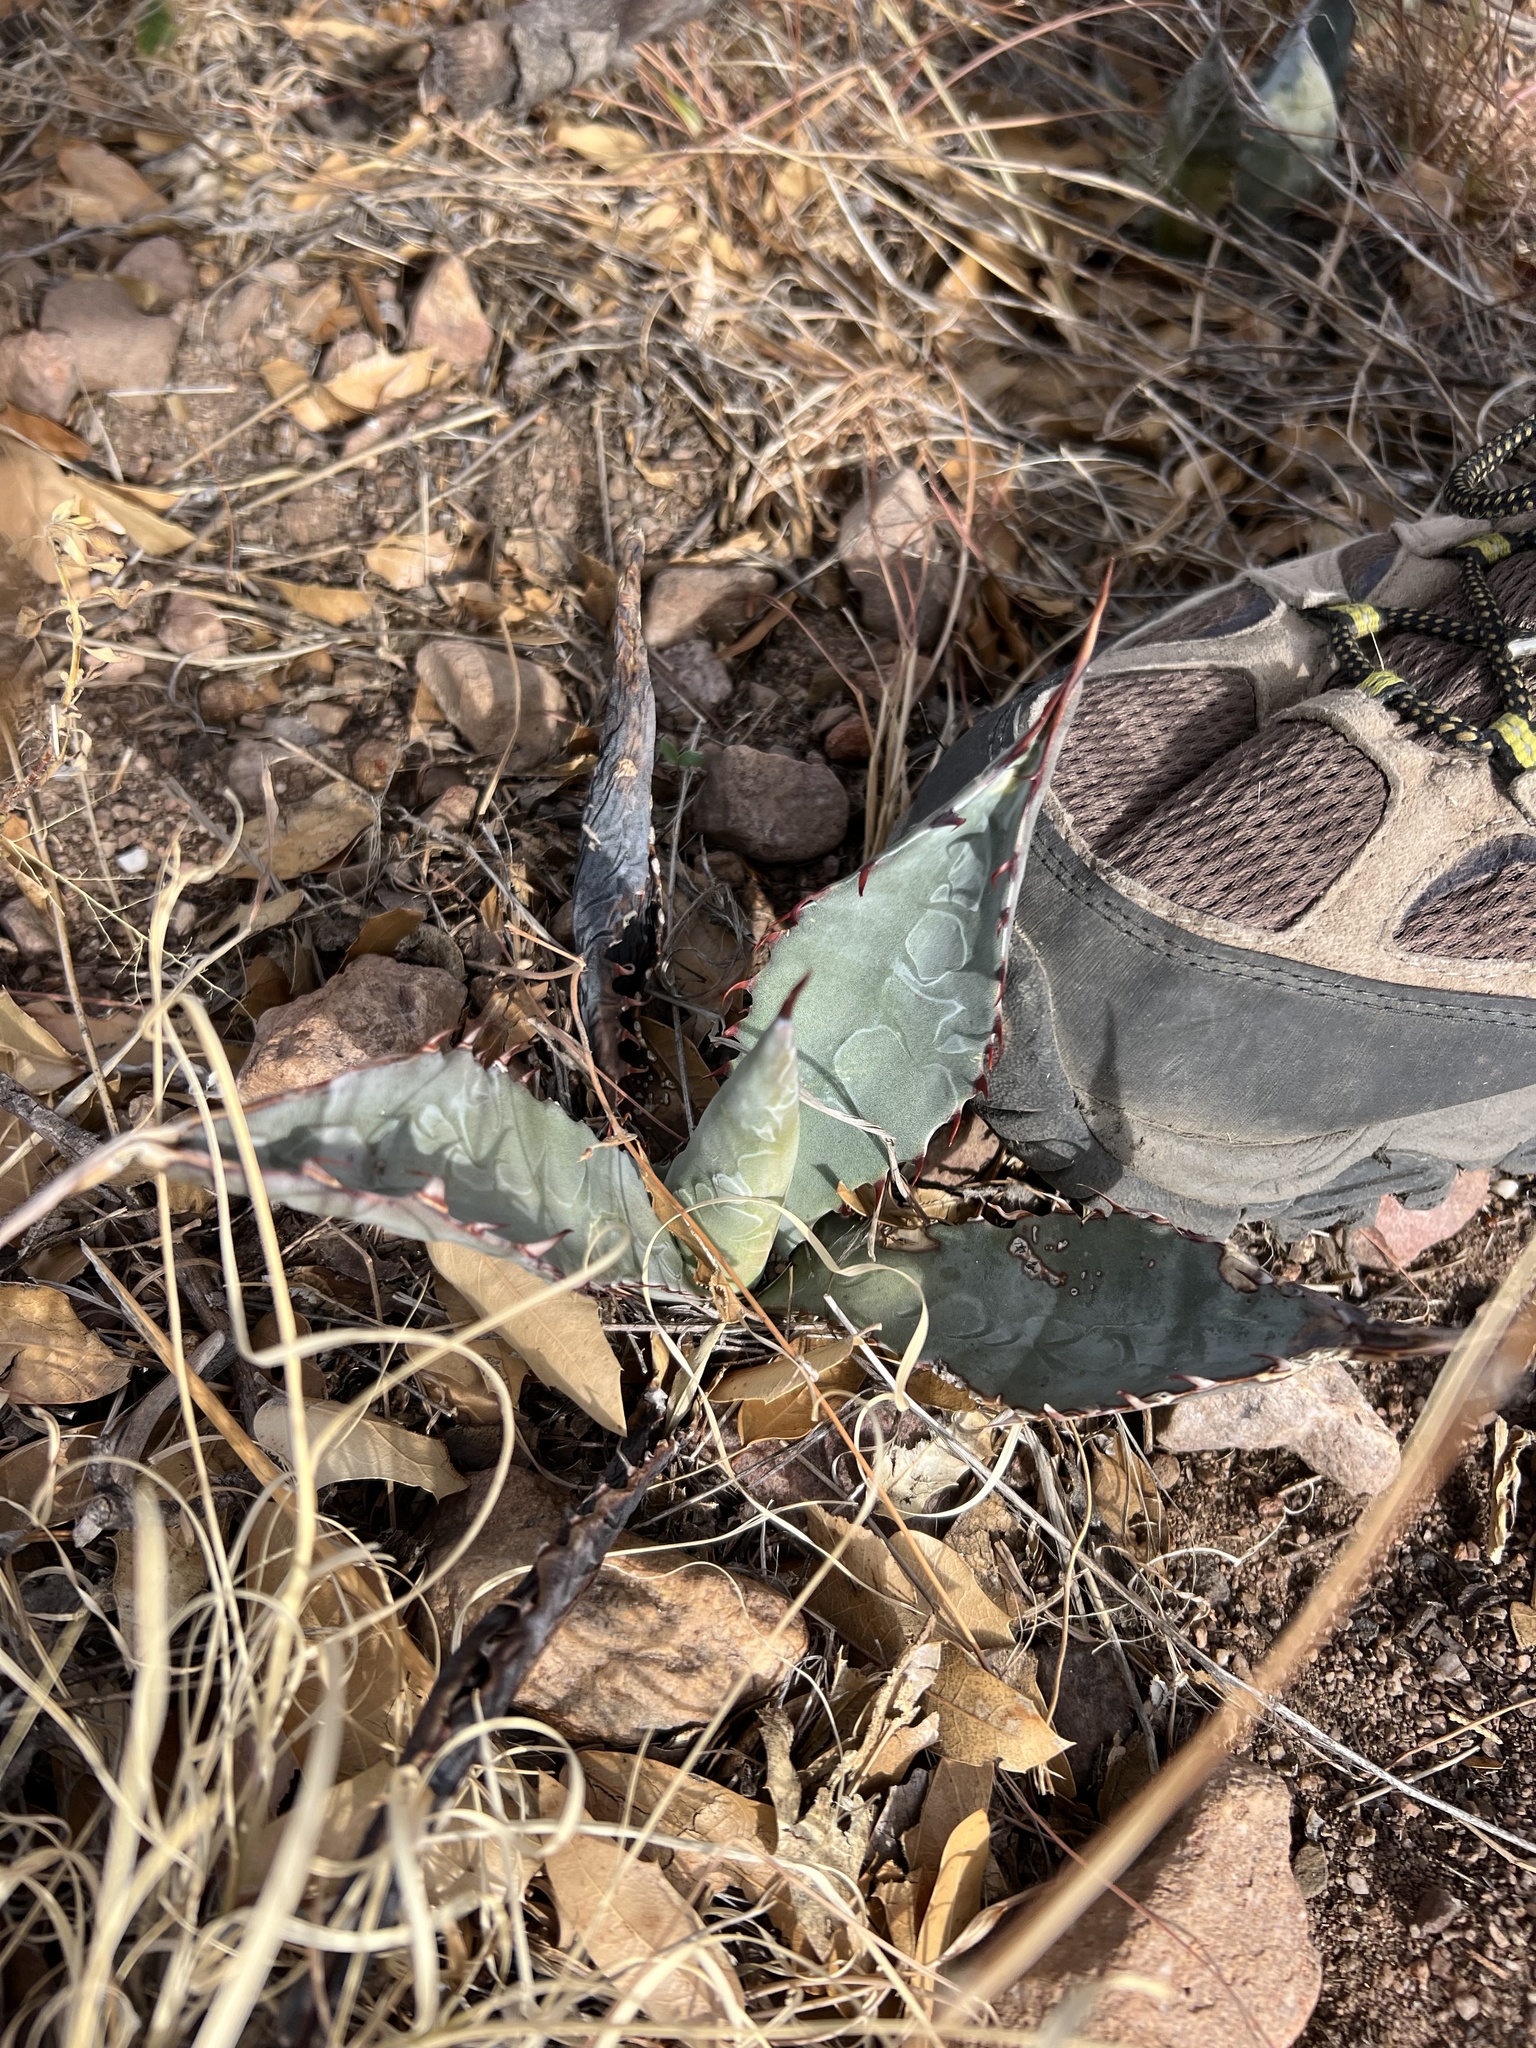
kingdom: Plantae
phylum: Tracheophyta
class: Liliopsida
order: Asparagales
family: Asparagaceae
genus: Agave
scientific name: Agave palmeri
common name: Palmer agave
